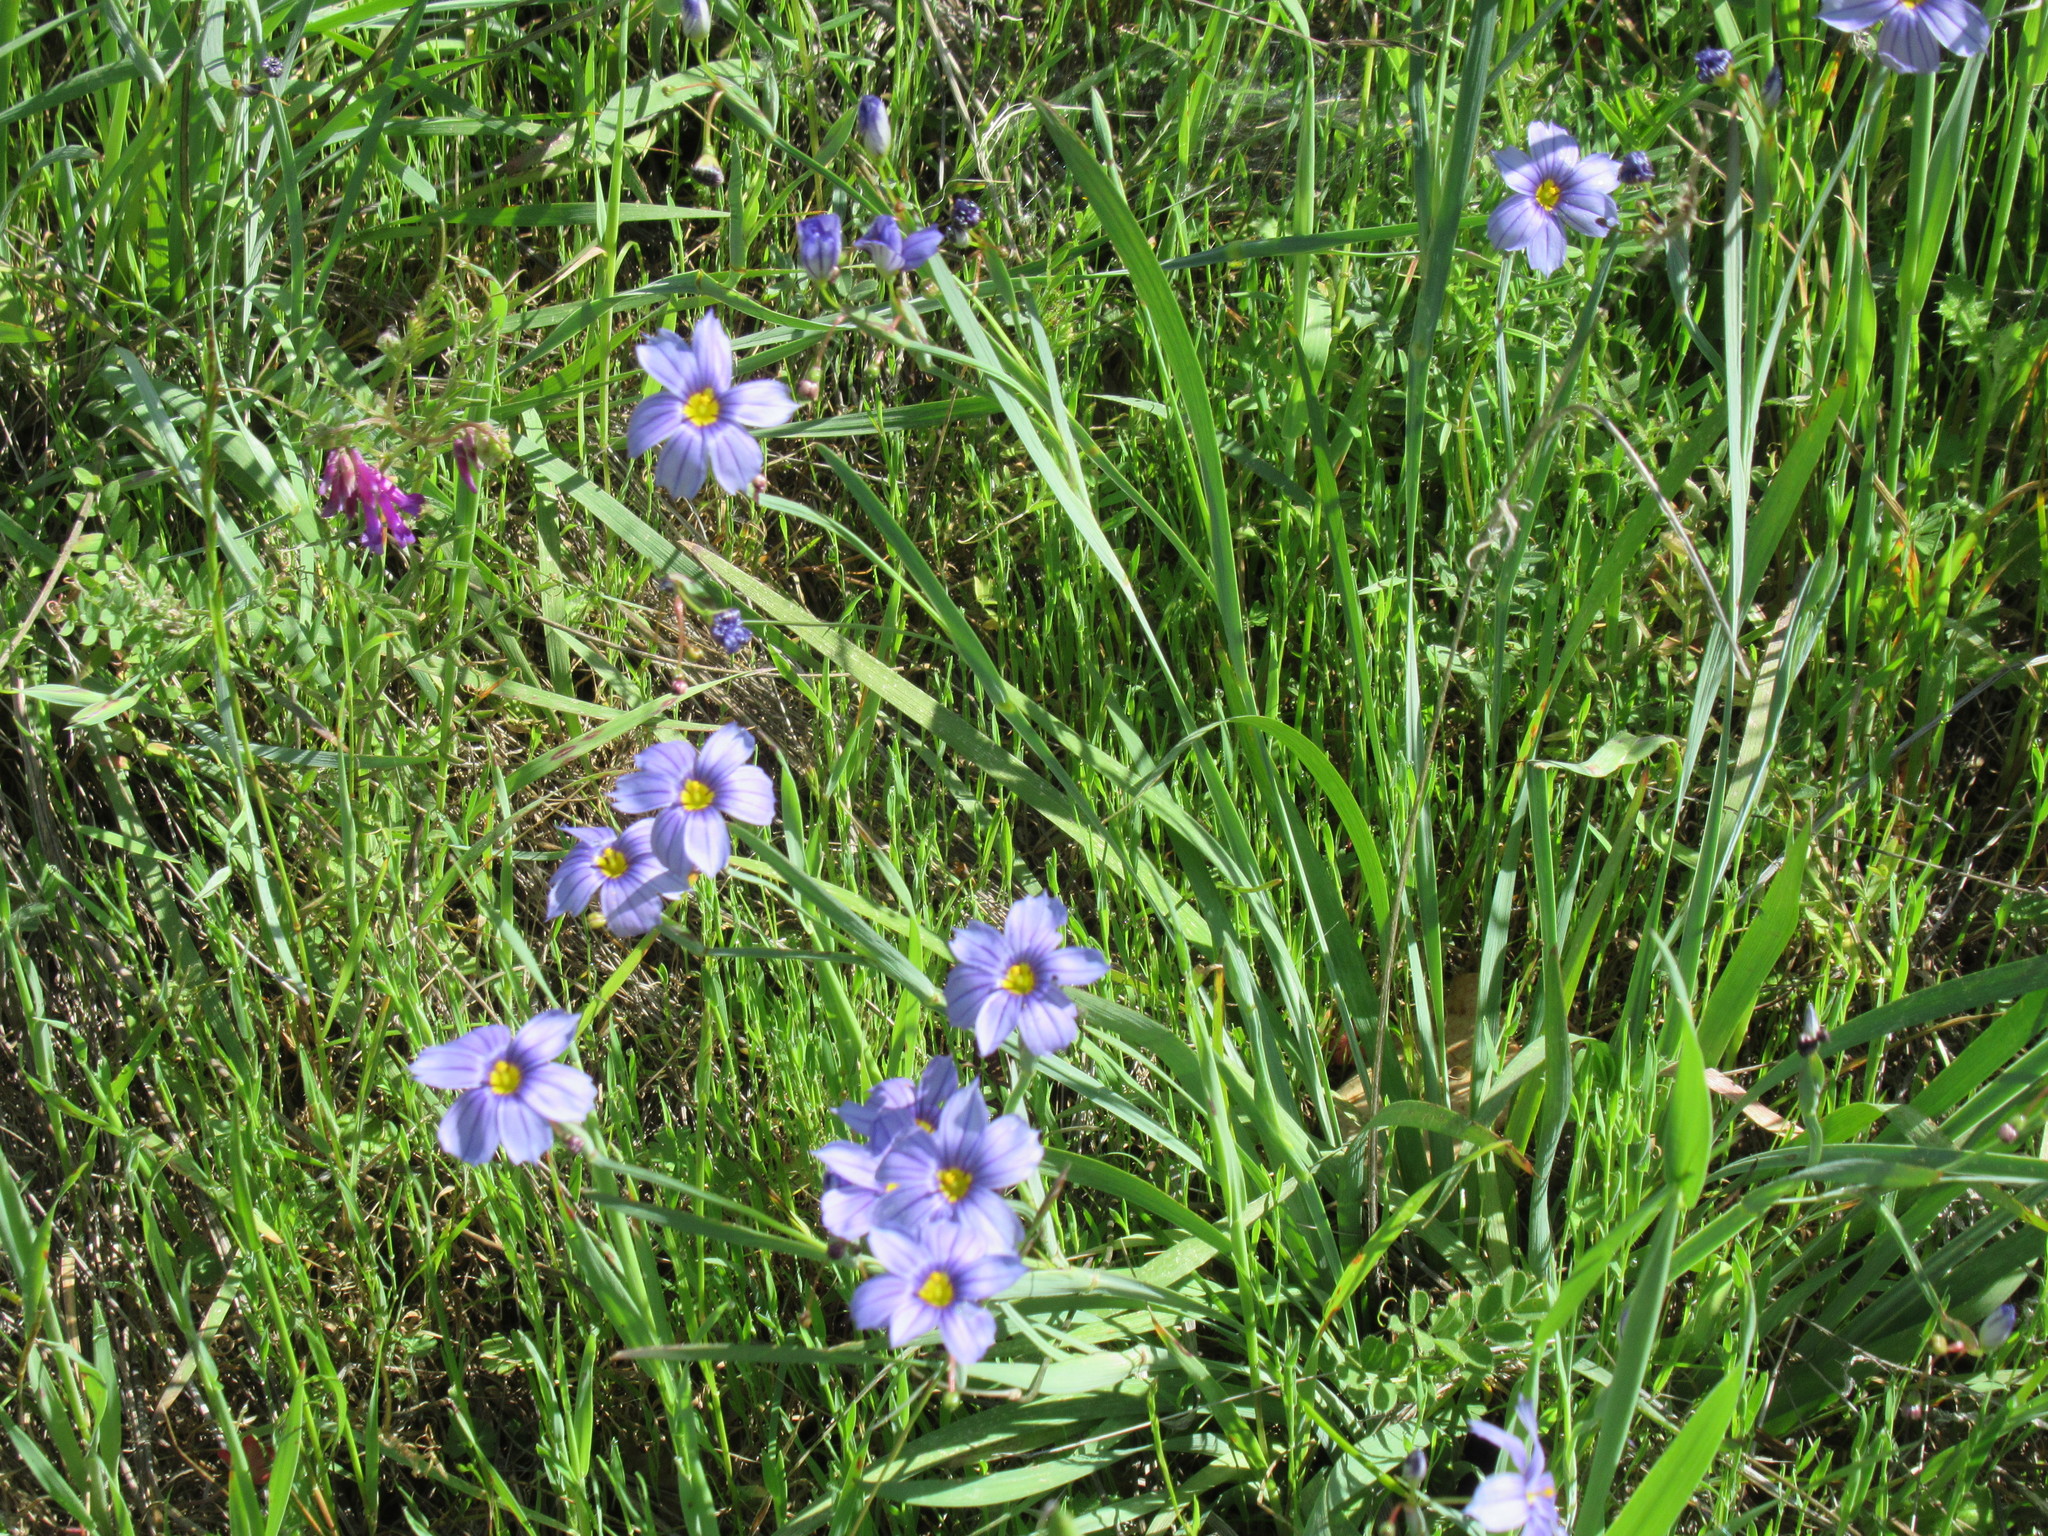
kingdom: Plantae
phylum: Tracheophyta
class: Liliopsida
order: Asparagales
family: Iridaceae
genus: Sisyrinchium
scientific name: Sisyrinchium bellum
